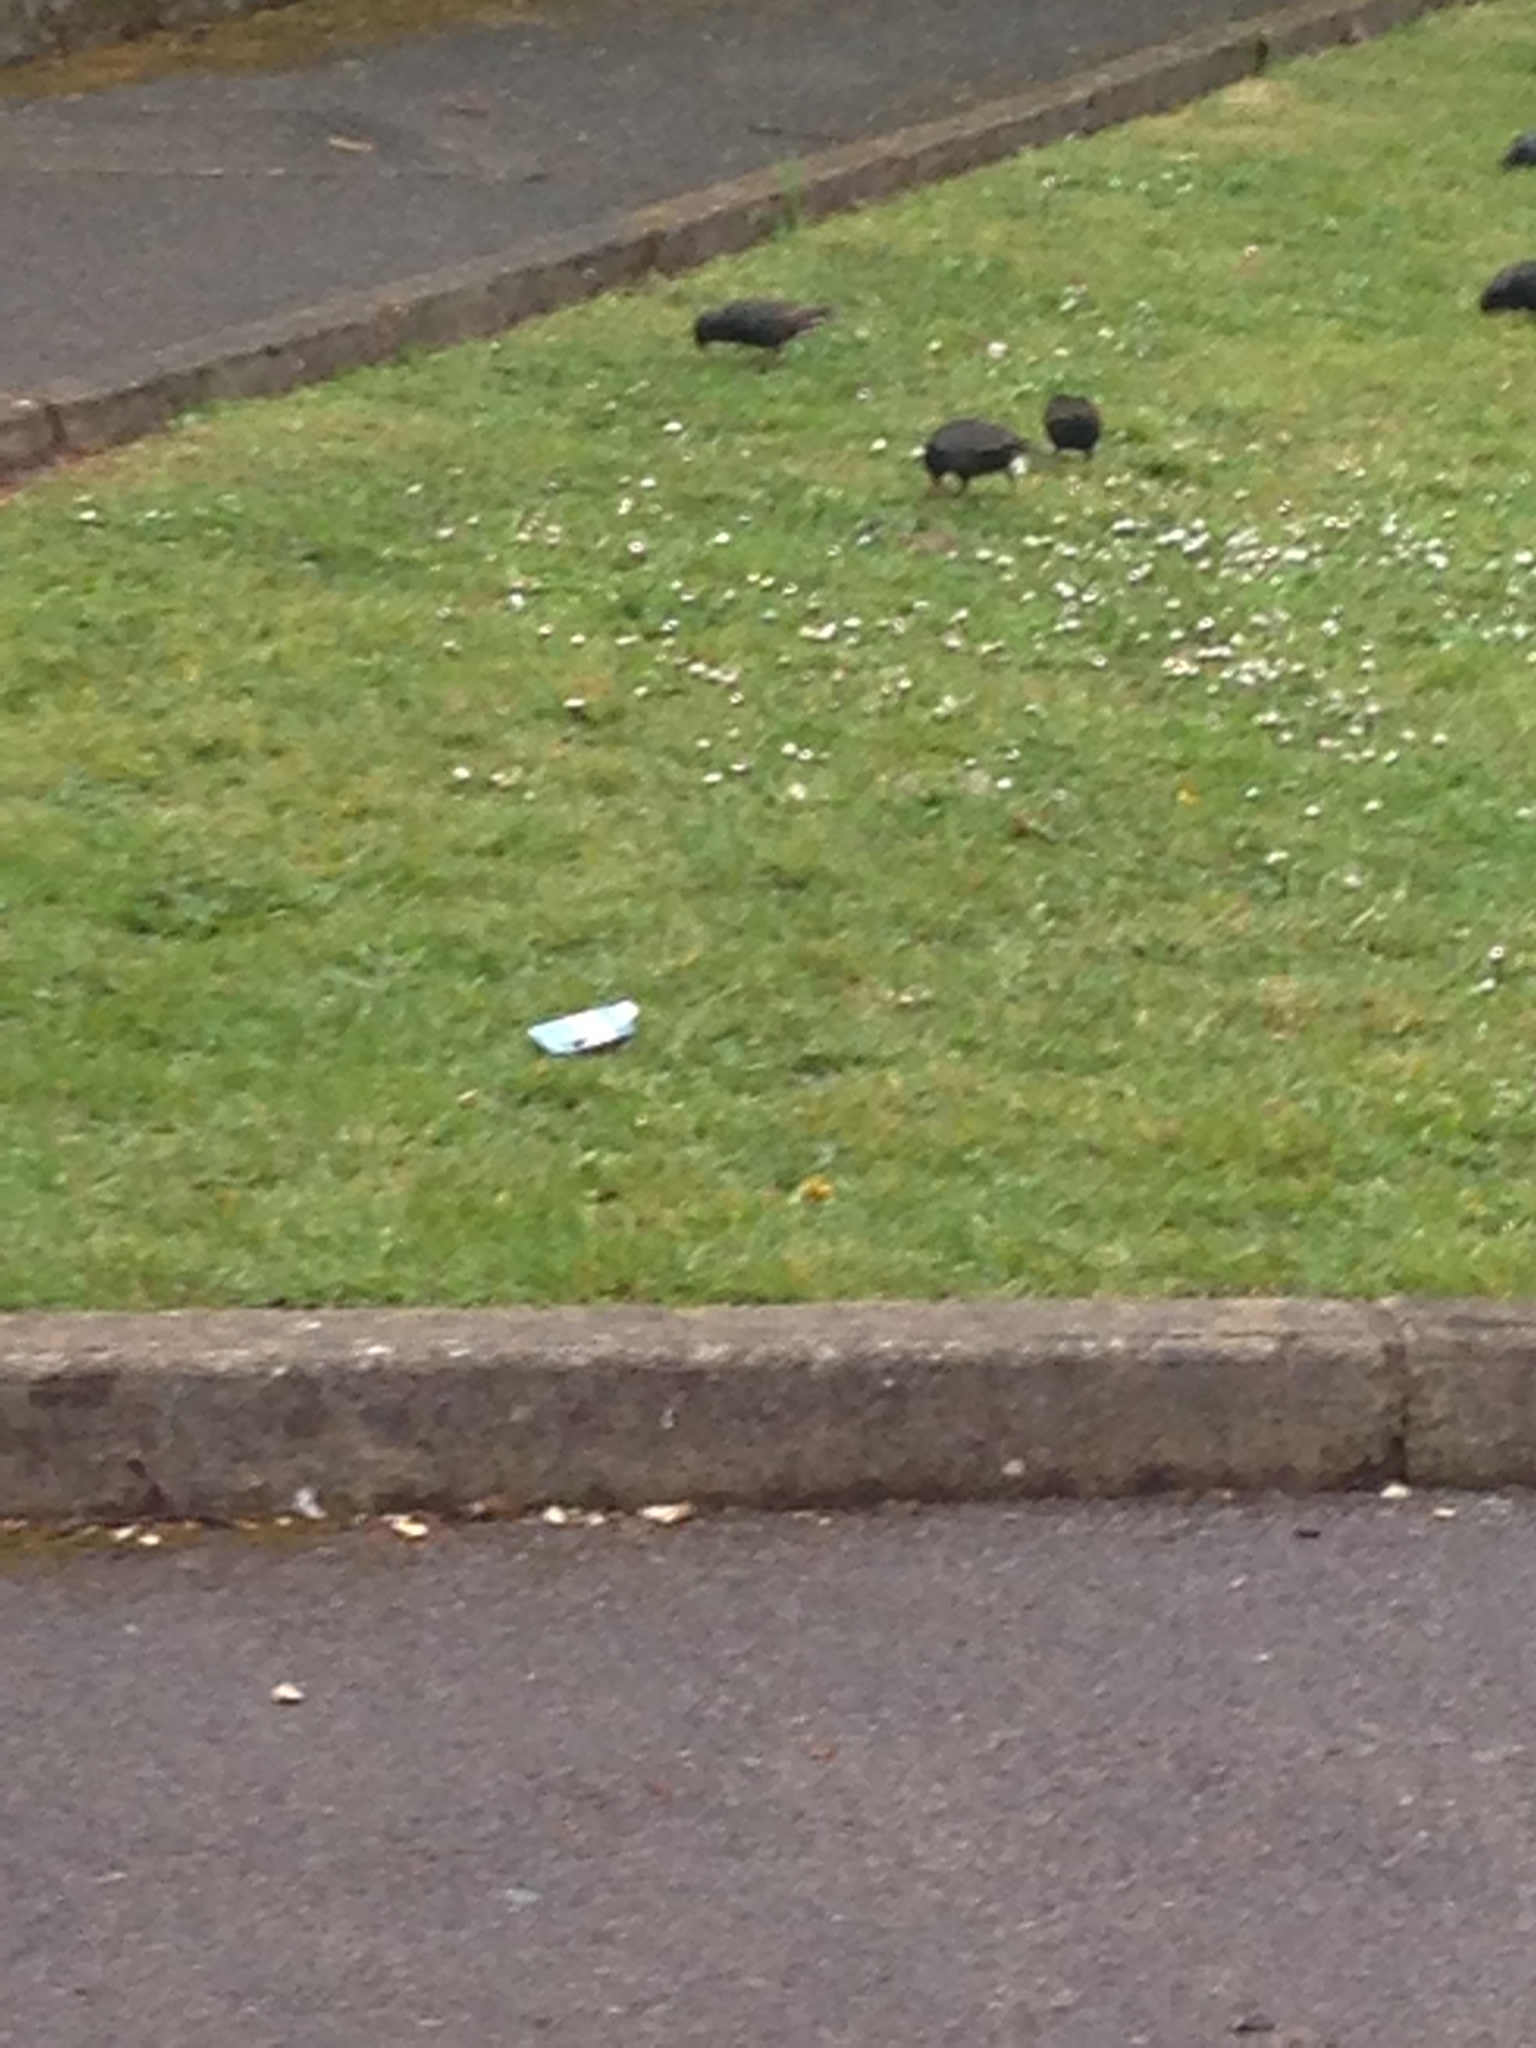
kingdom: Animalia
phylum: Chordata
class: Aves
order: Passeriformes
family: Sturnidae
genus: Sturnus
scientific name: Sturnus vulgaris
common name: Common starling
